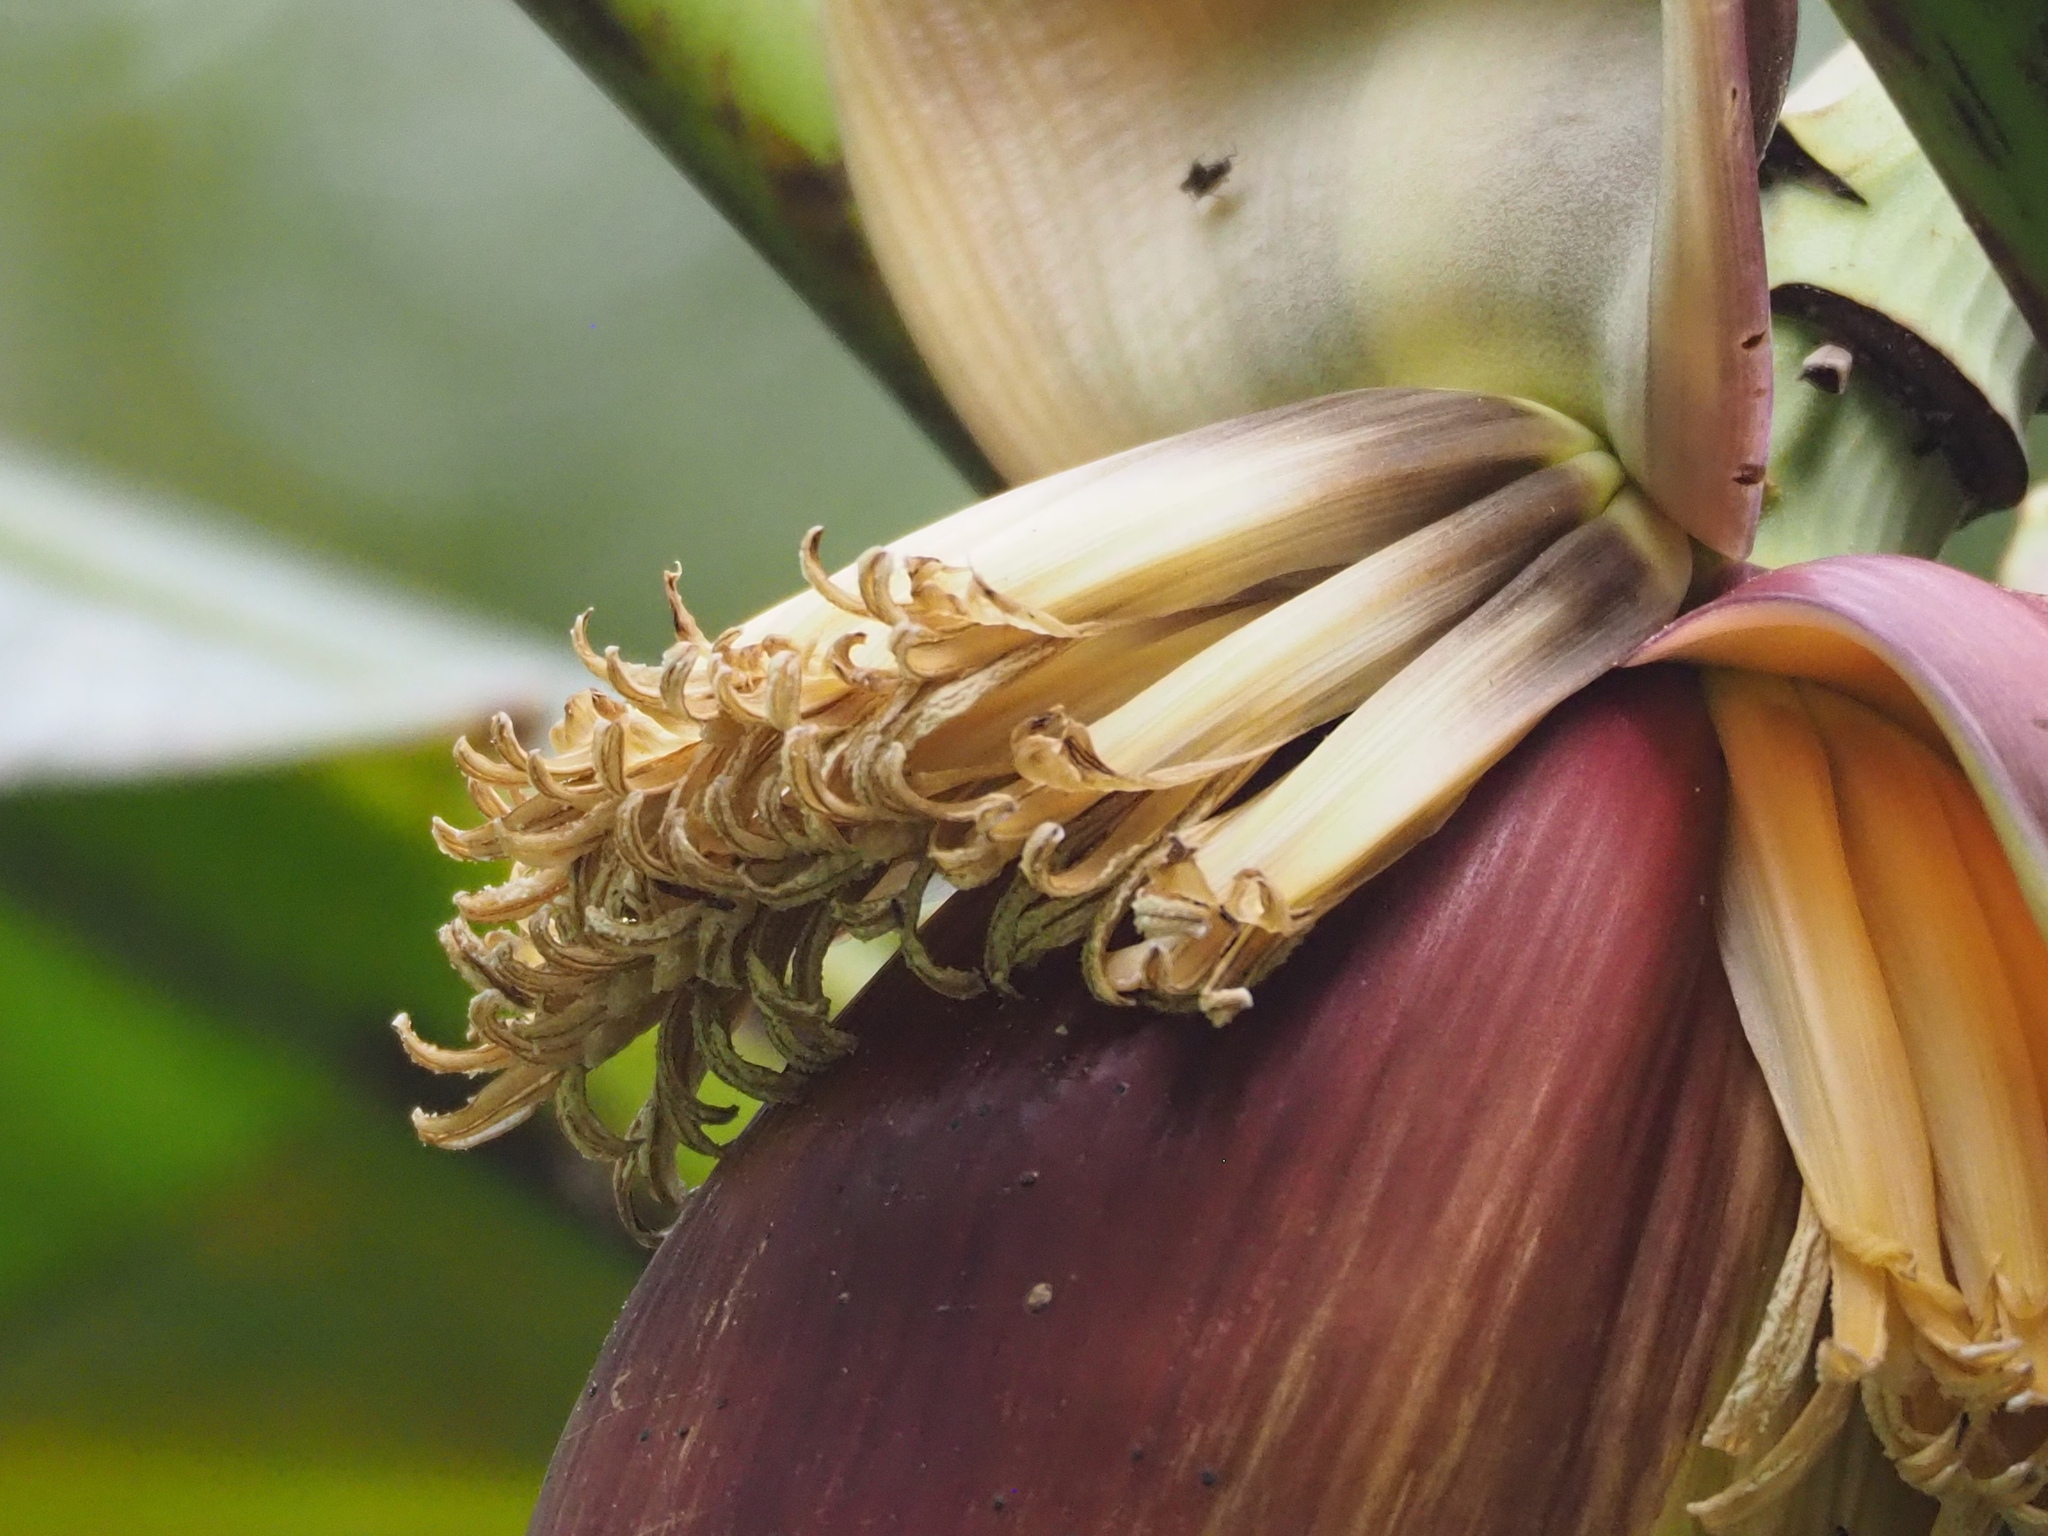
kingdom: Plantae
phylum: Tracheophyta
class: Liliopsida
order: Zingiberales
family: Musaceae
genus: Musa
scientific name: Musa itinerans
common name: Yunnan banana
